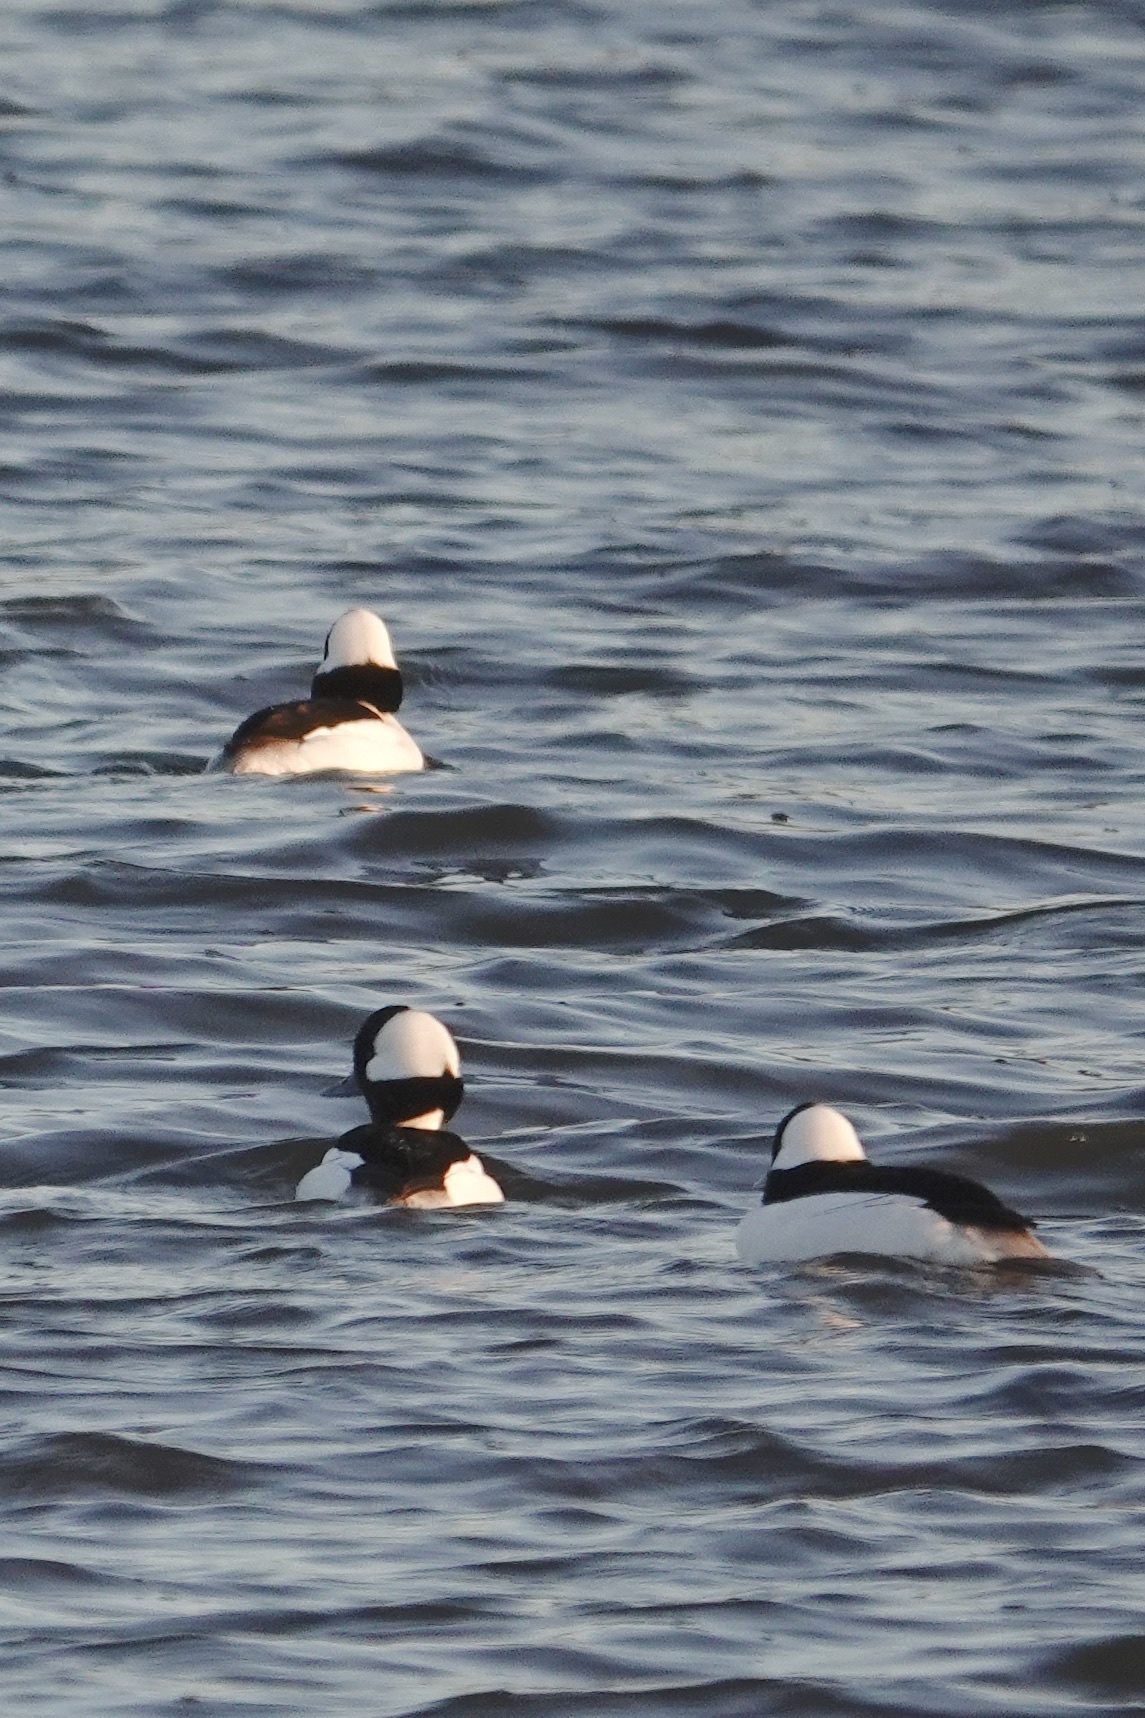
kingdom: Animalia
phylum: Chordata
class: Aves
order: Anseriformes
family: Anatidae
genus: Bucephala
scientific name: Bucephala albeola
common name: Bufflehead
